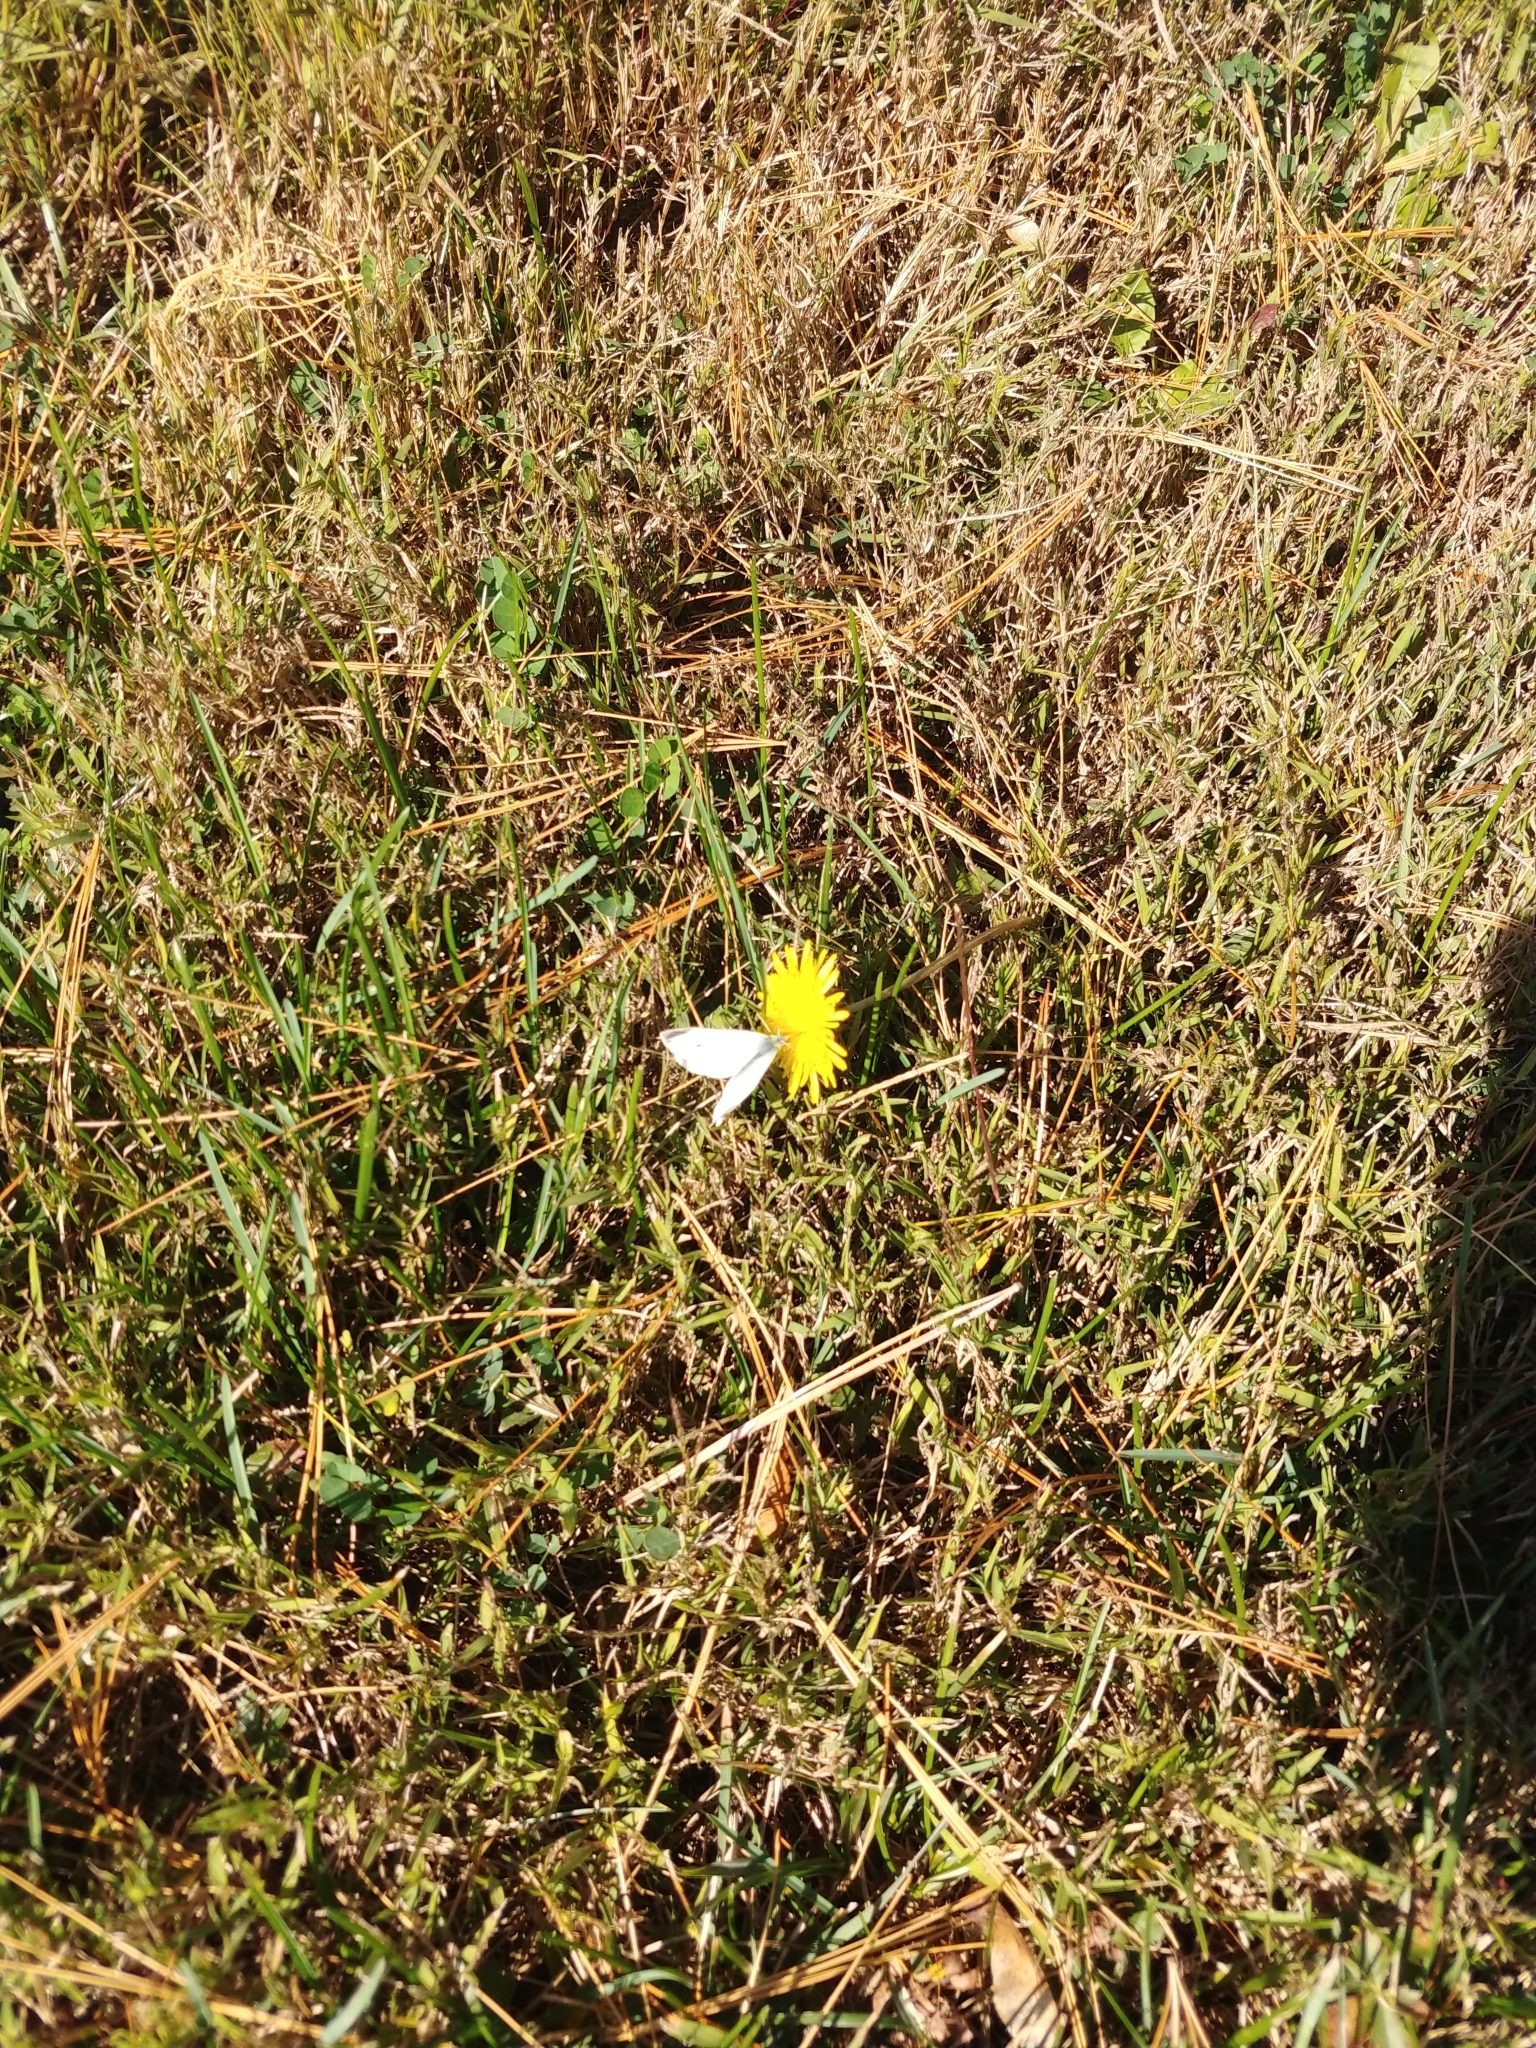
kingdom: Animalia
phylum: Arthropoda
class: Insecta
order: Lepidoptera
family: Pieridae
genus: Pieris
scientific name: Pieris rapae
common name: Small white
